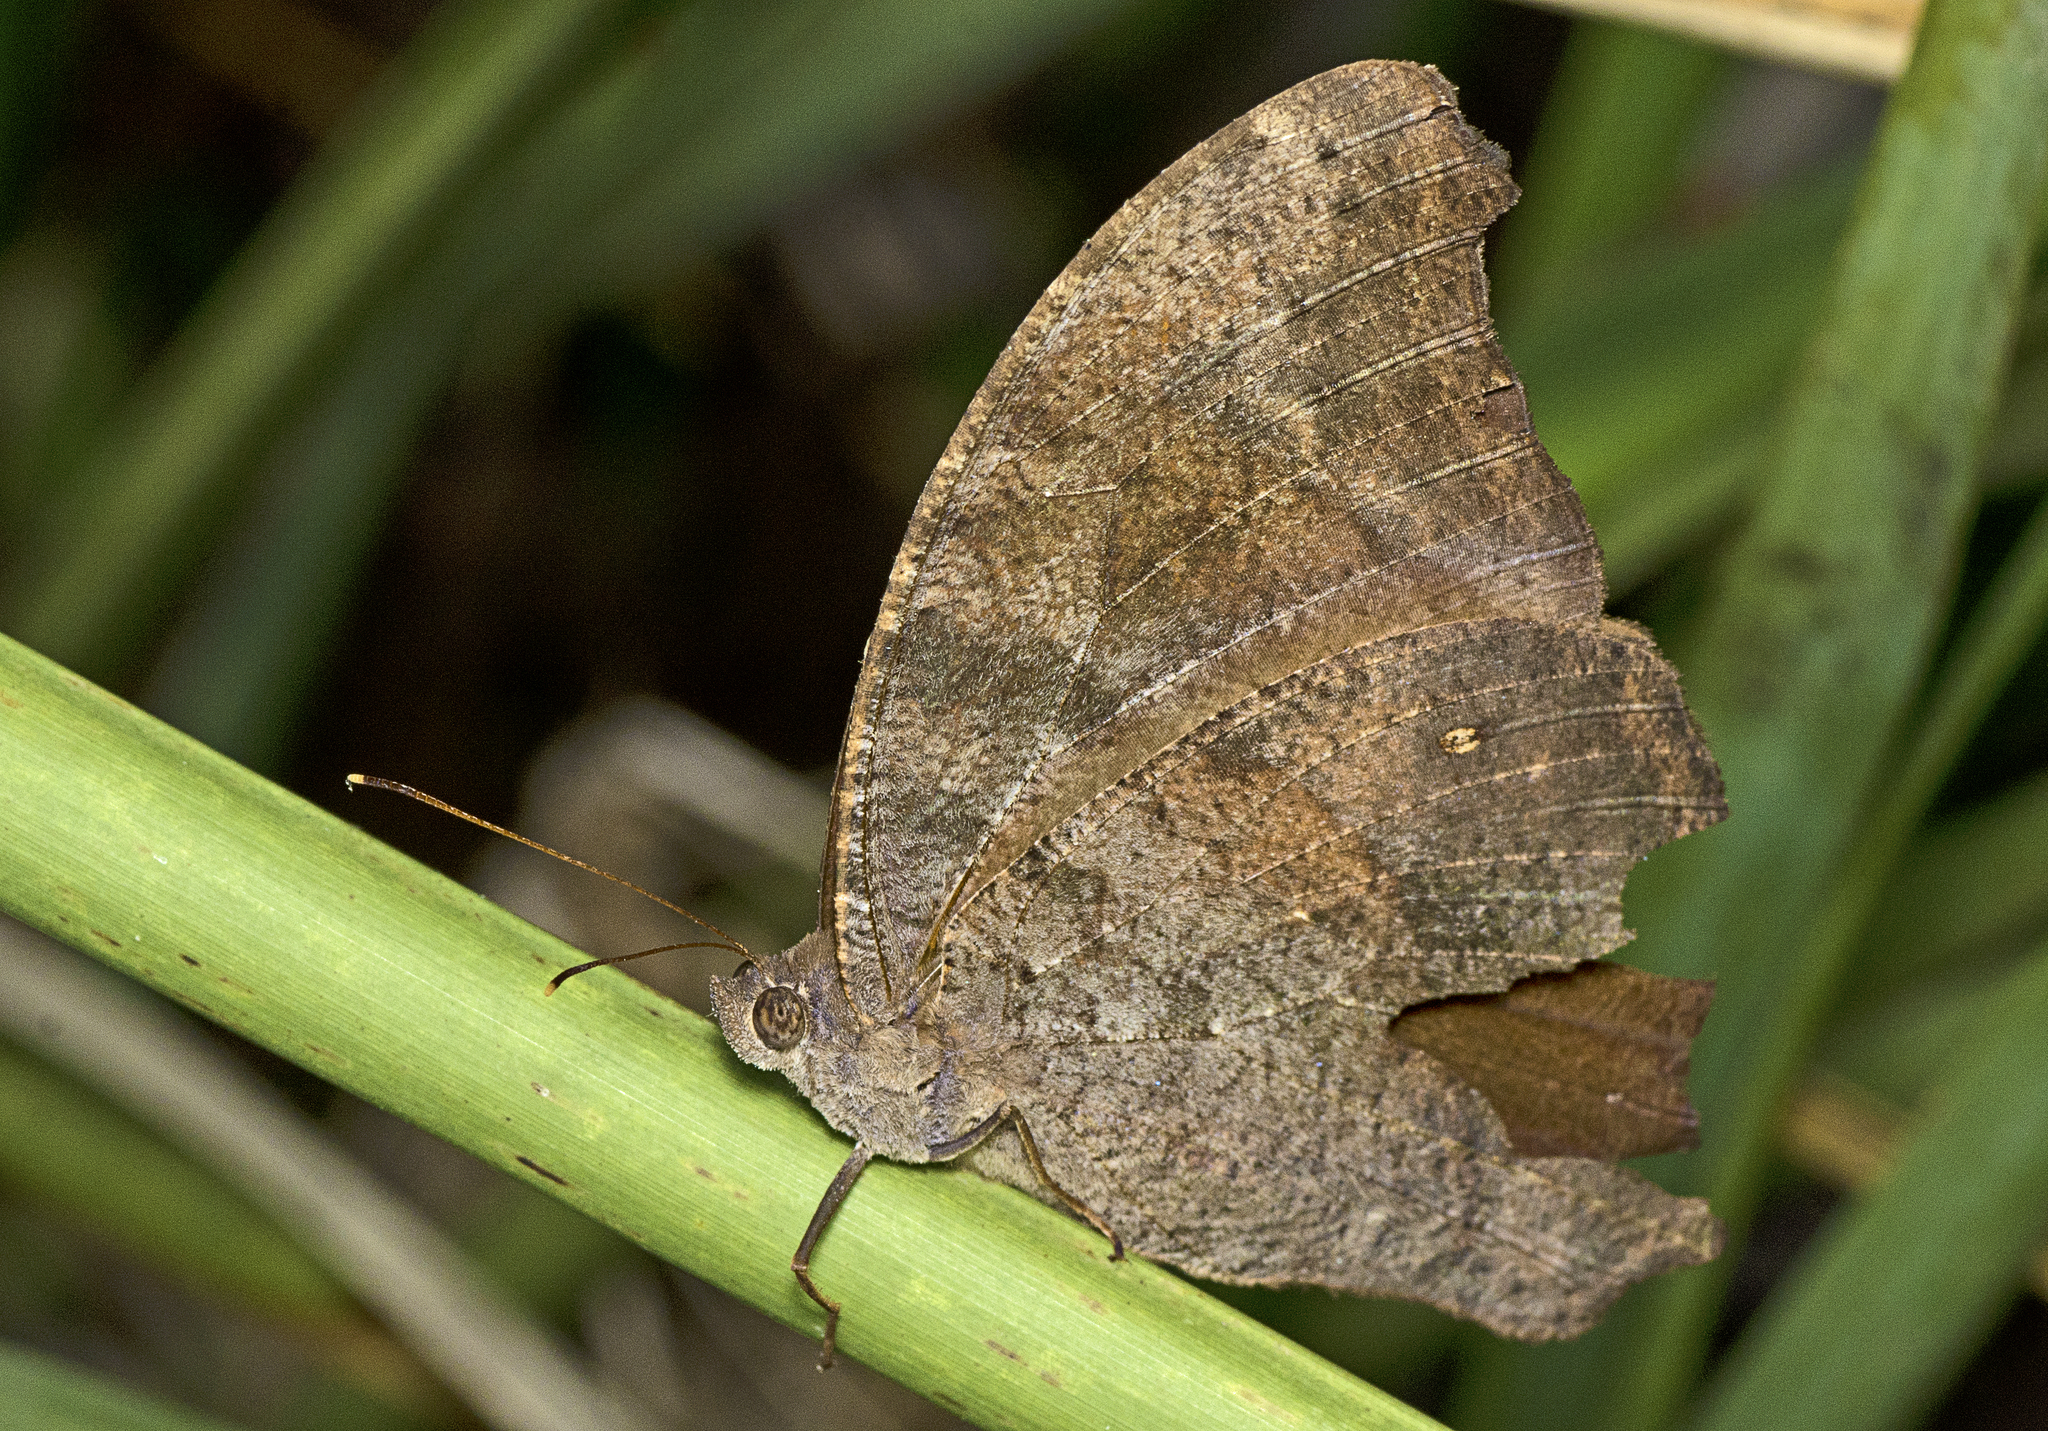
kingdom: Animalia
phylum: Arthropoda
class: Insecta
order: Lepidoptera
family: Nymphalidae
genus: Melanitis
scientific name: Melanitis leda
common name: Twilight brown
